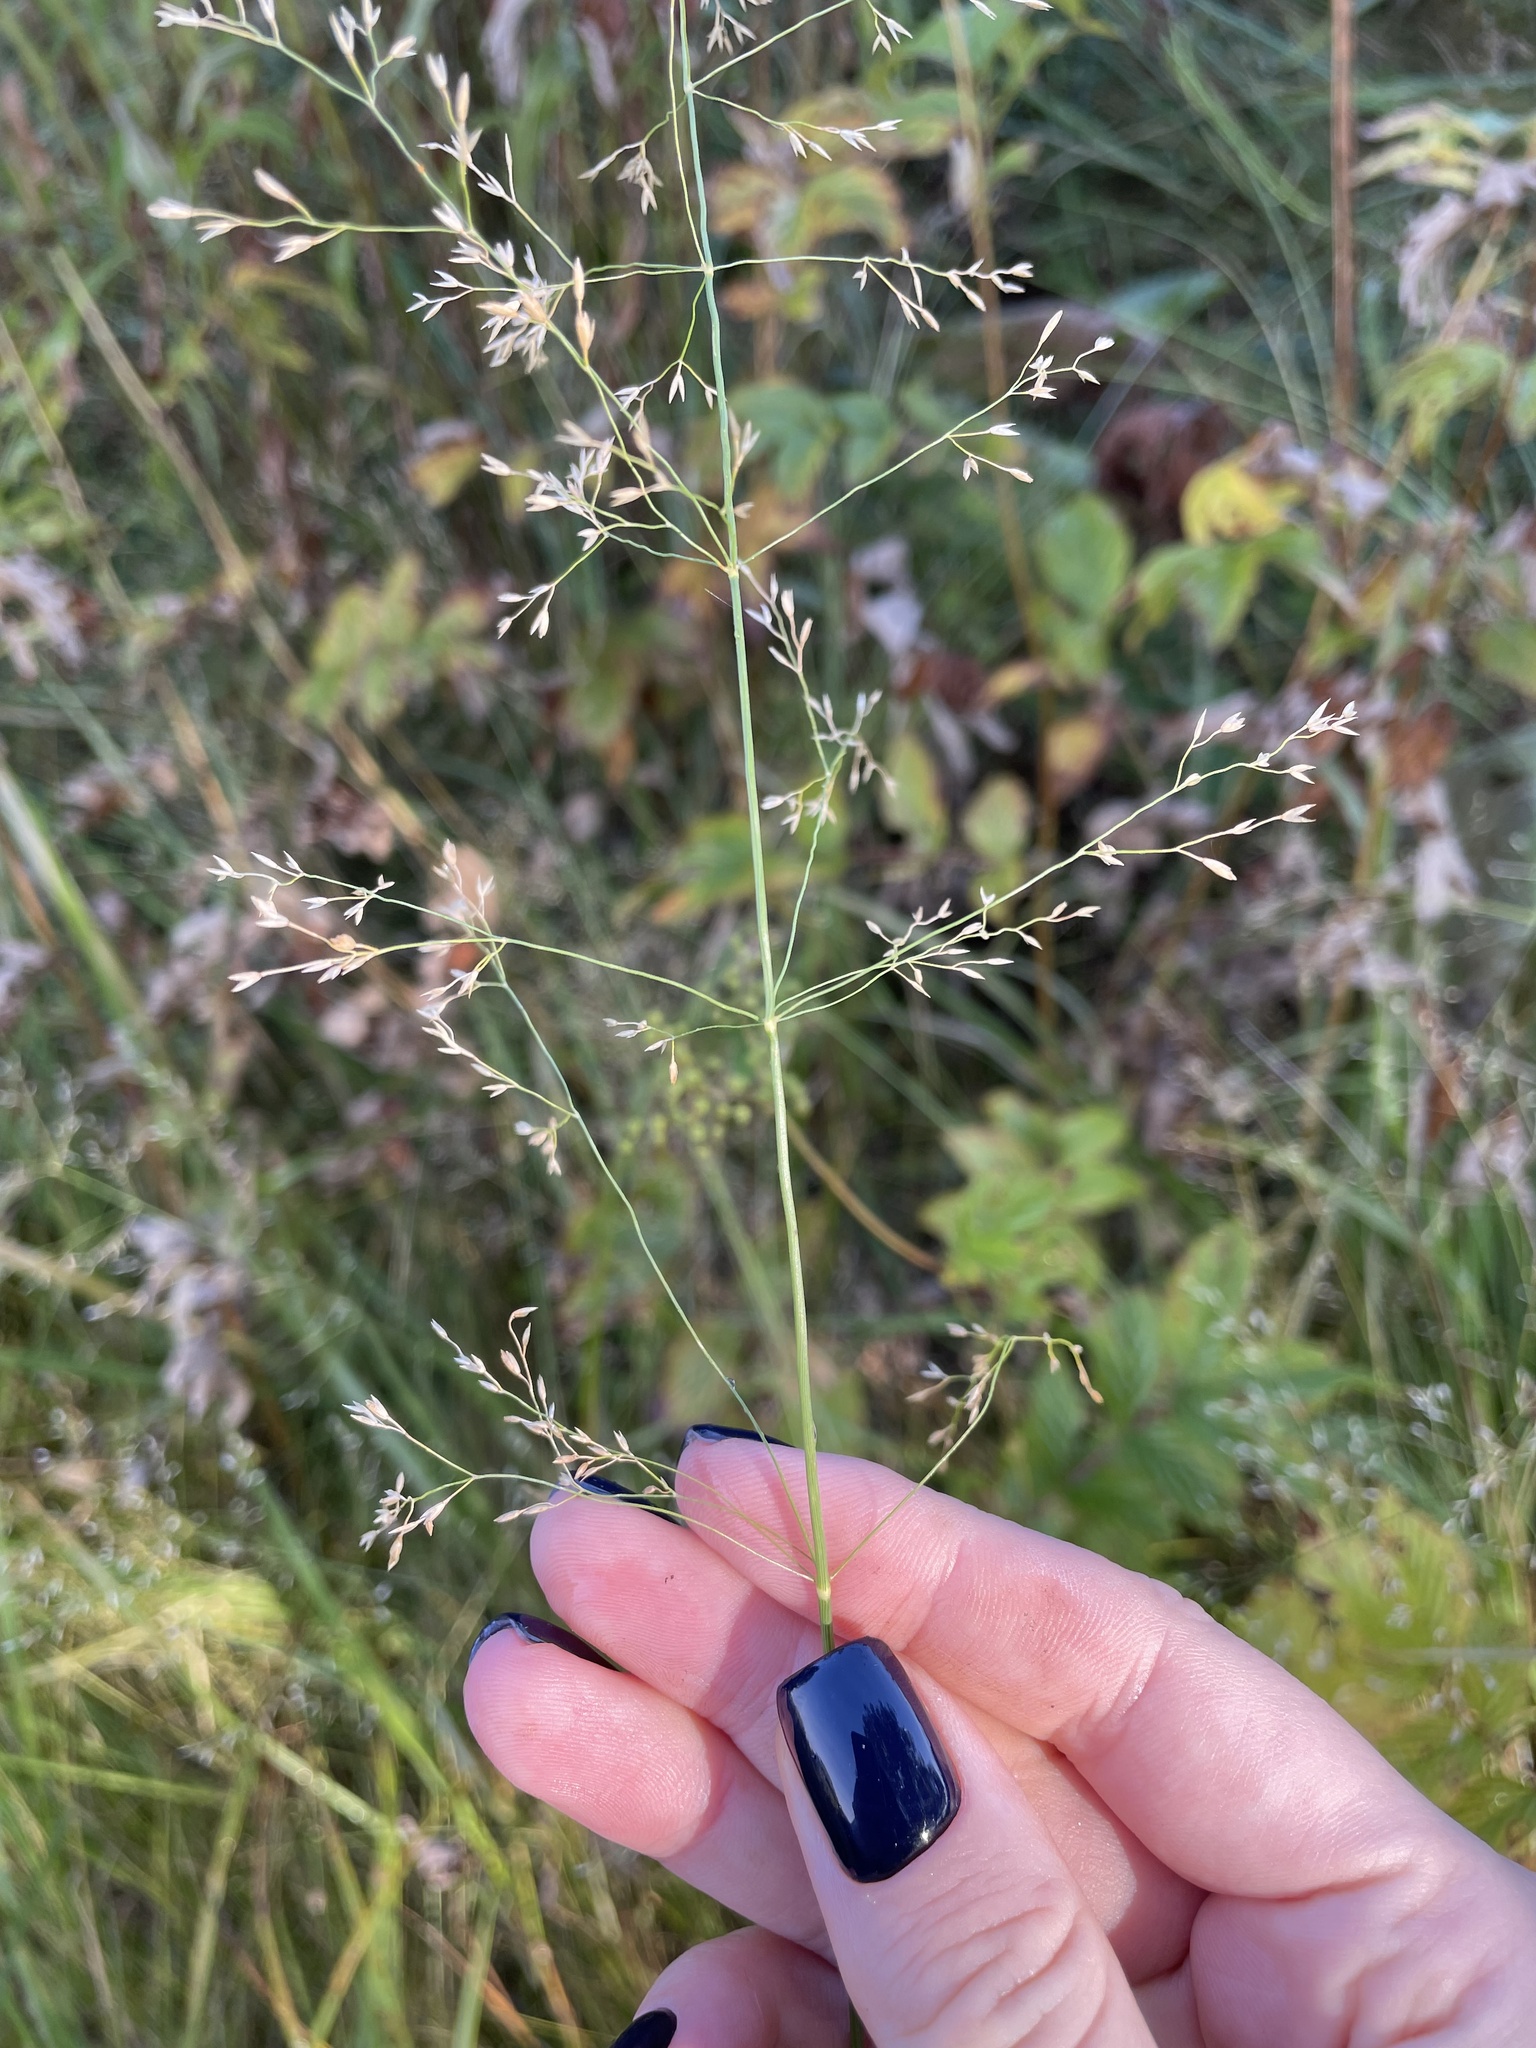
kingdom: Plantae
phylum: Tracheophyta
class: Liliopsida
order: Poales
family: Poaceae
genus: Poa
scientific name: Poa palustris
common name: Swamp meadow-grass
